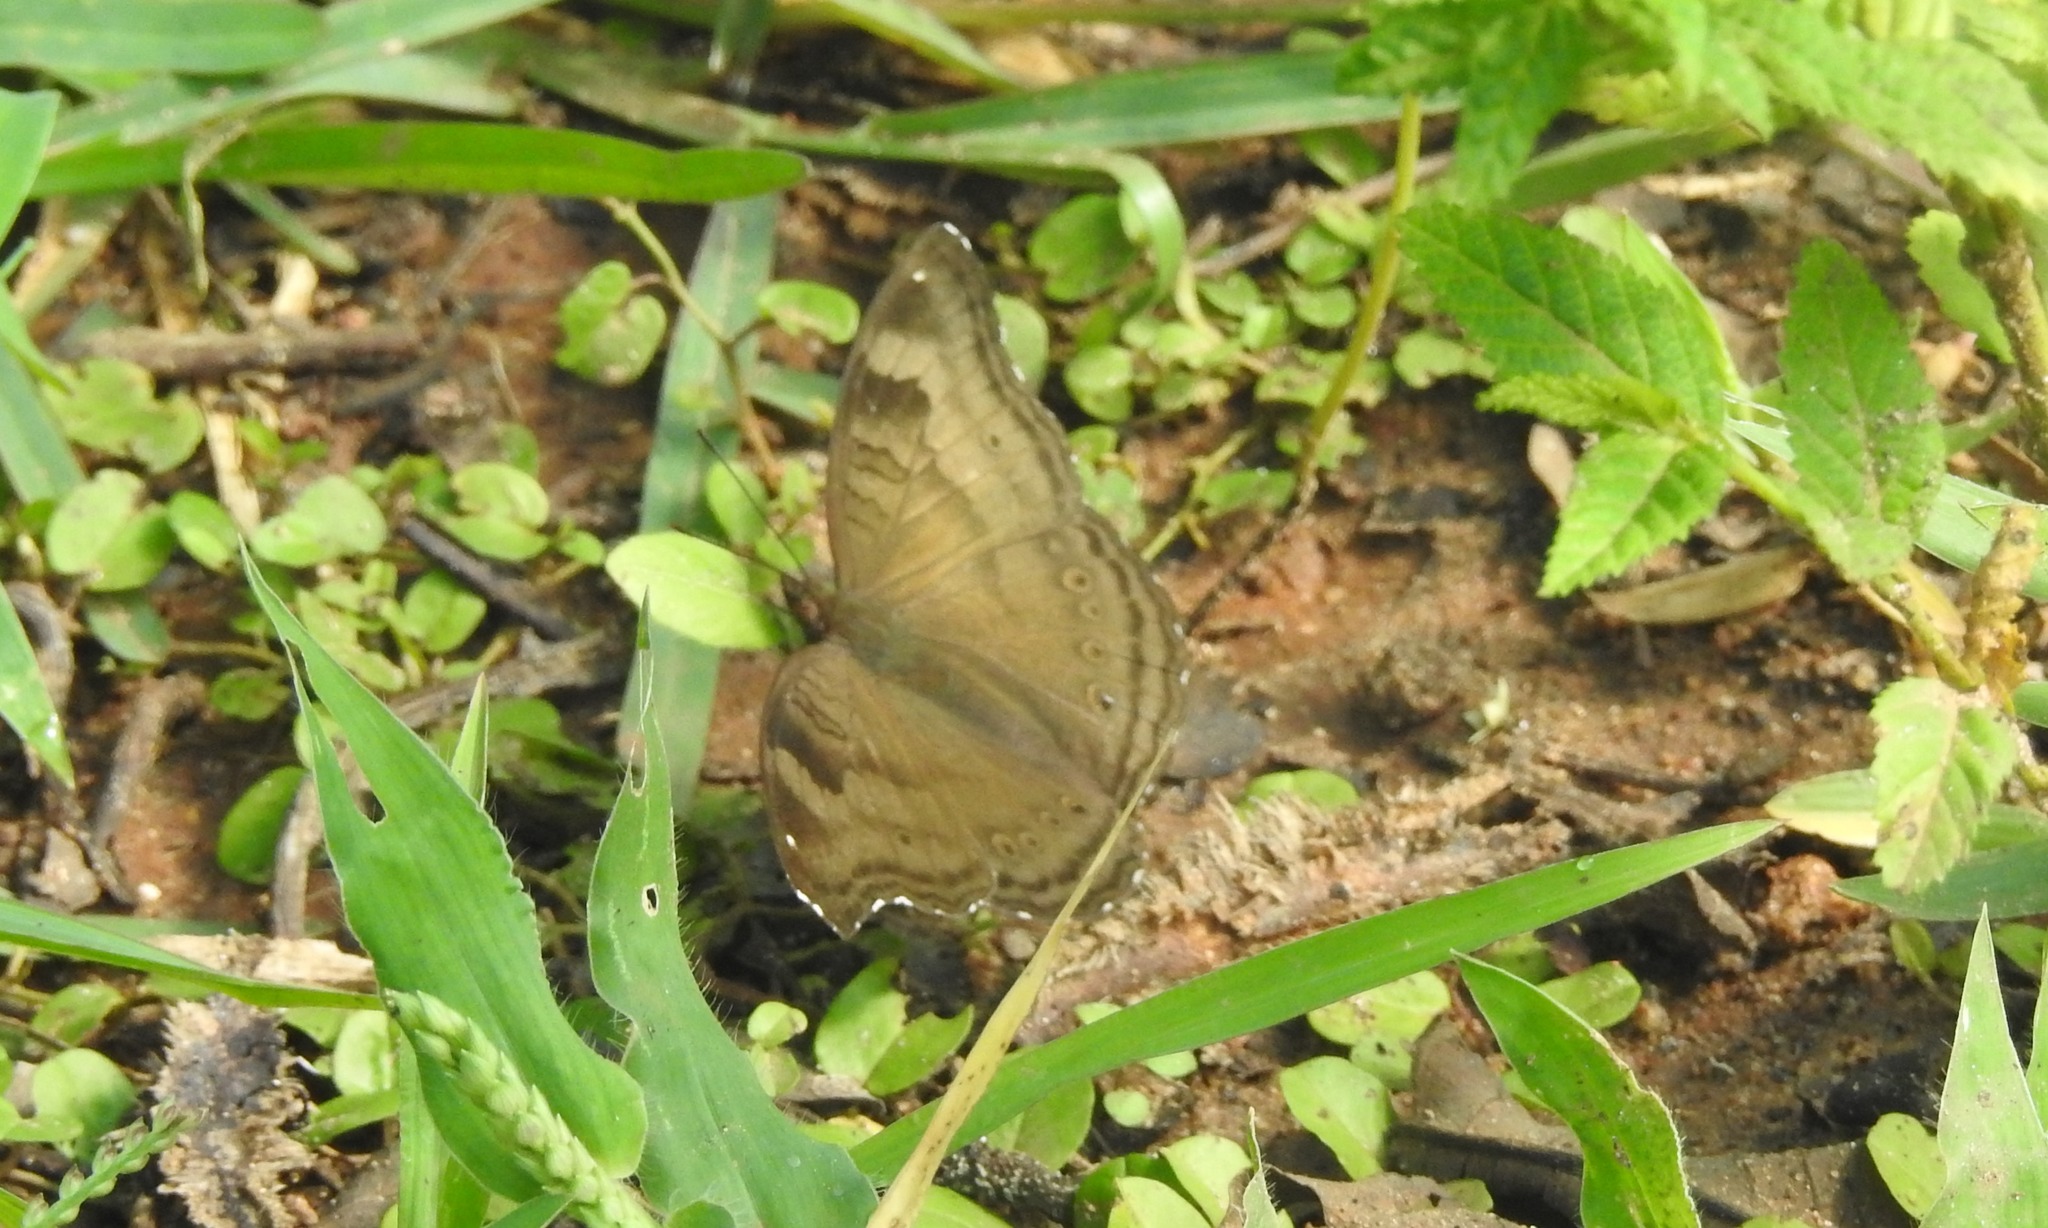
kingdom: Animalia
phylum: Arthropoda
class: Insecta
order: Lepidoptera
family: Nymphalidae
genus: Junonia
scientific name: Junonia iphita
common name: Chocolate pansy
